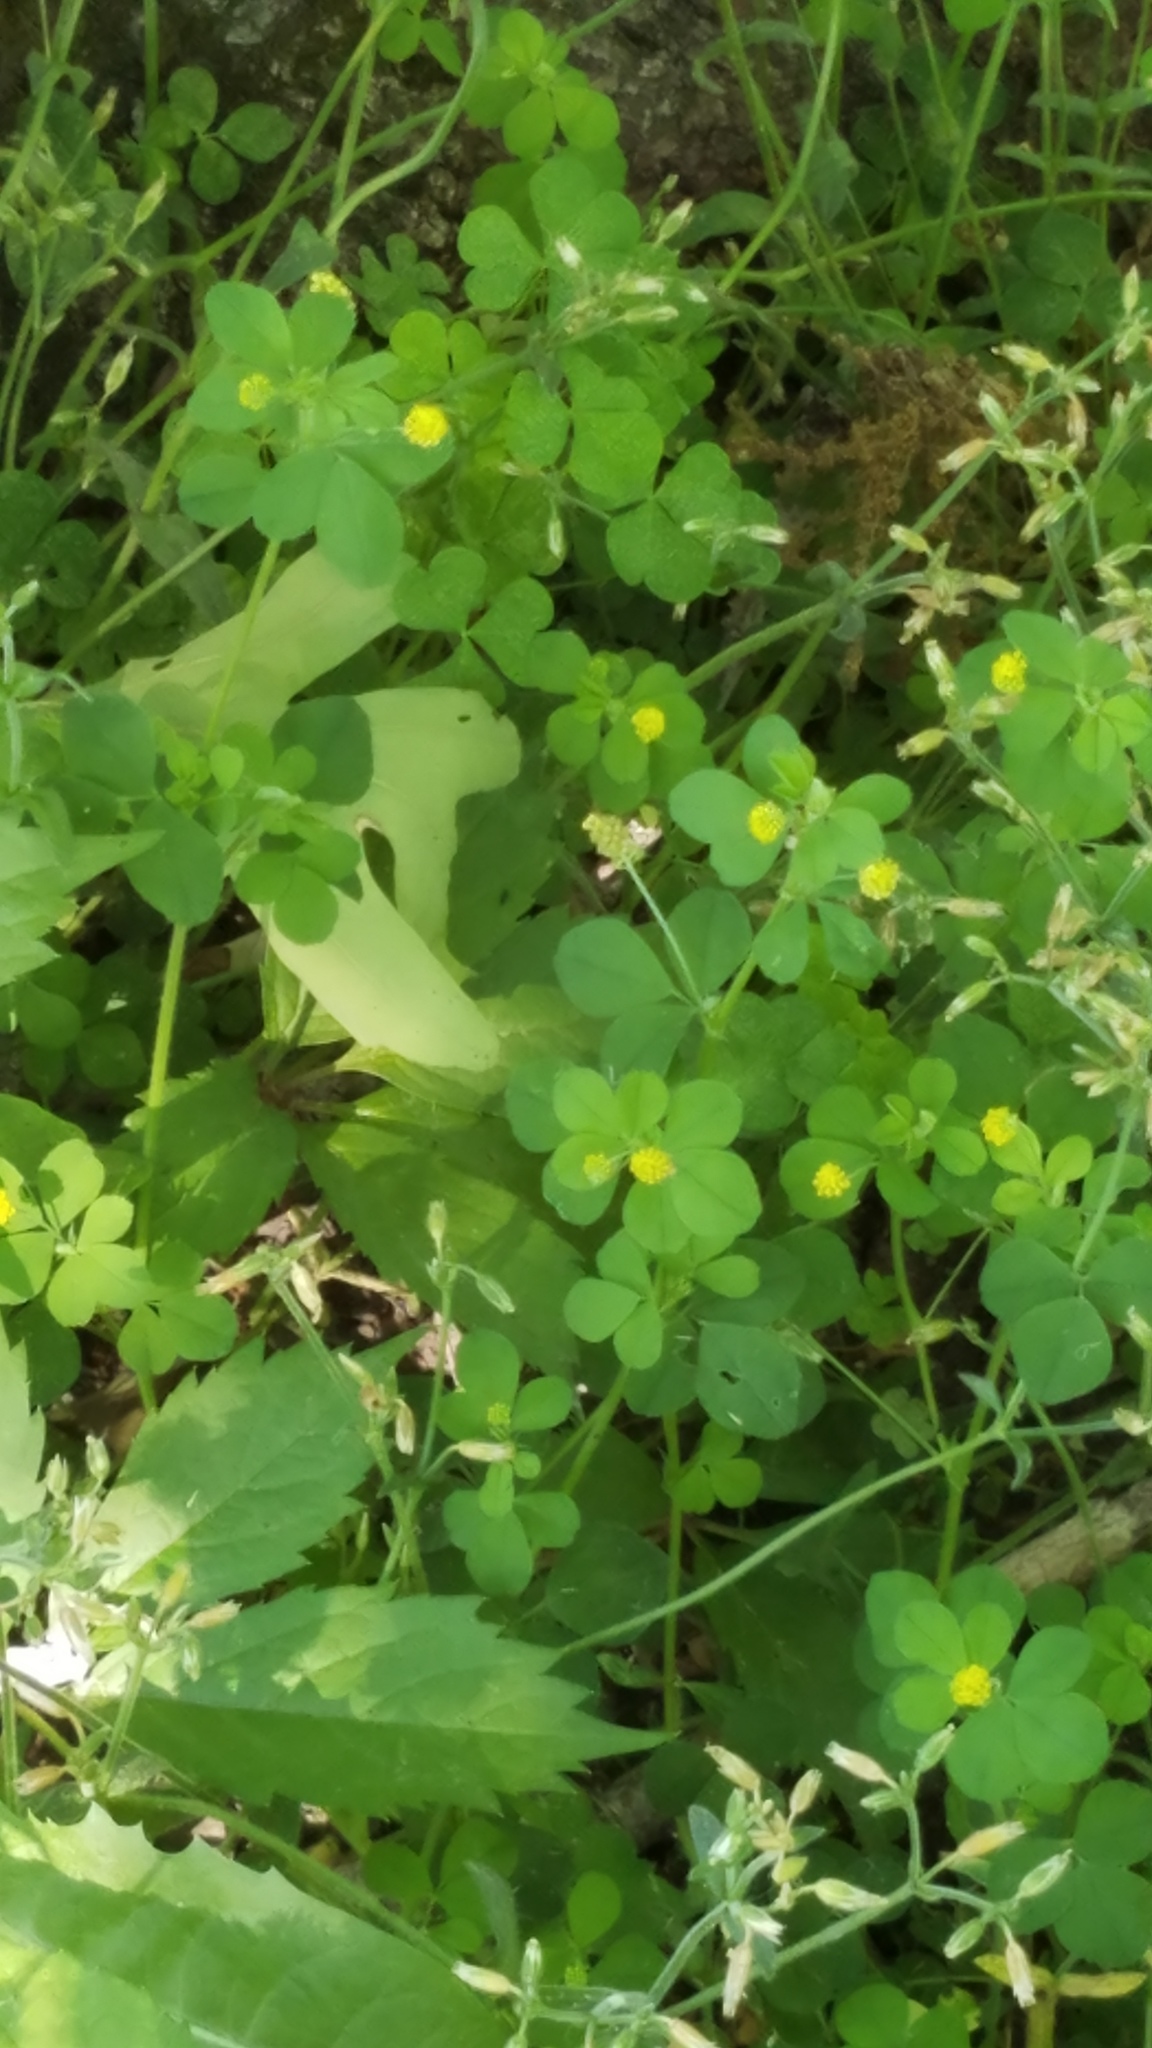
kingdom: Plantae
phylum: Tracheophyta
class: Magnoliopsida
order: Fabales
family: Fabaceae
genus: Medicago
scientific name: Medicago lupulina
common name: Black medick
